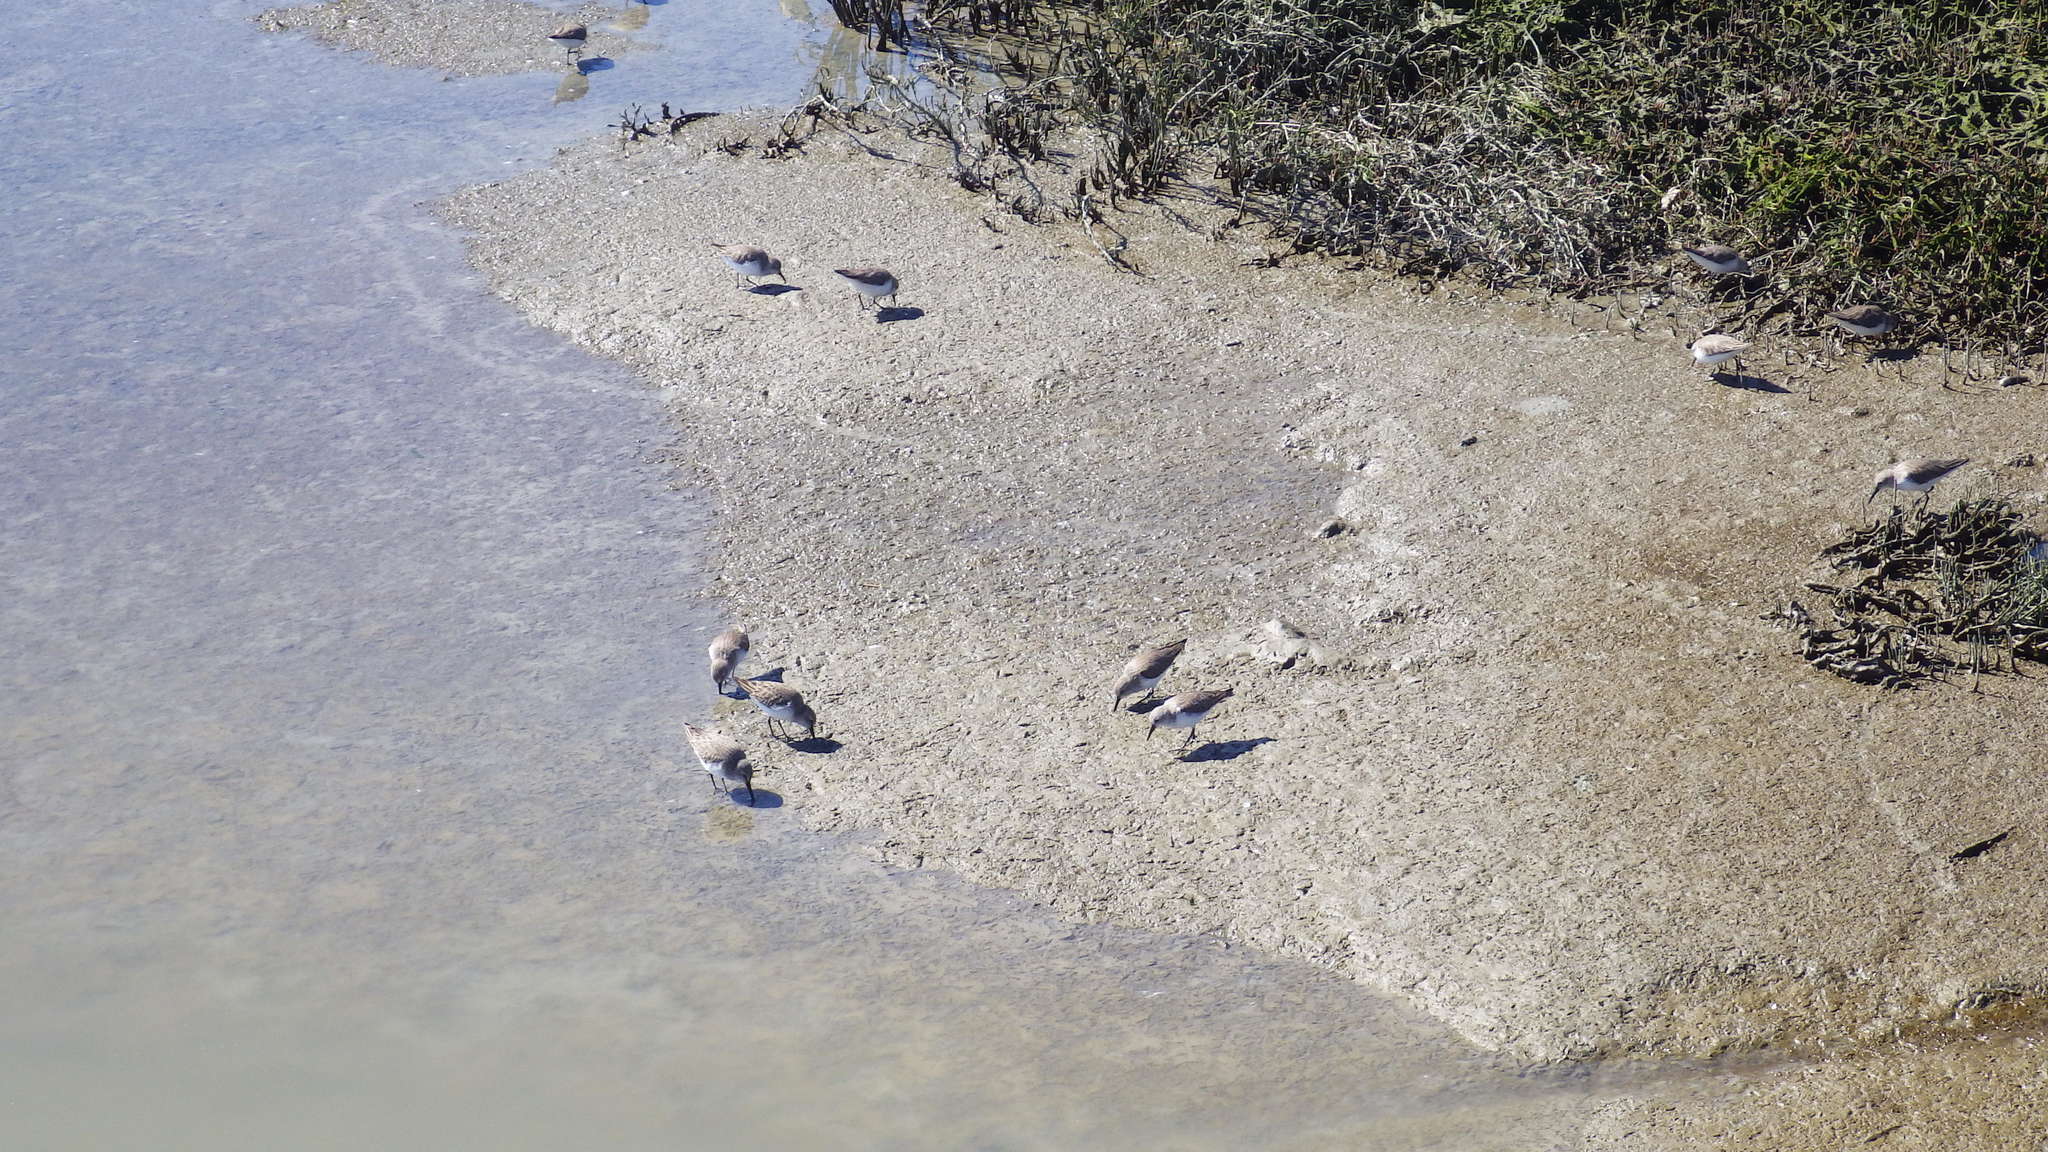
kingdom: Animalia
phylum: Chordata
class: Aves
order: Charadriiformes
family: Scolopacidae
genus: Calidris
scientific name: Calidris minutilla
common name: Least sandpiper
